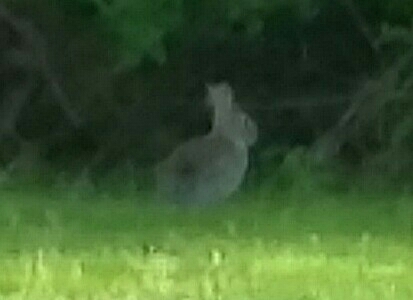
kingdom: Animalia
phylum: Chordata
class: Mammalia
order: Lagomorpha
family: Leporidae
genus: Sylvilagus
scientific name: Sylvilagus floridanus
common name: Eastern cottontail
